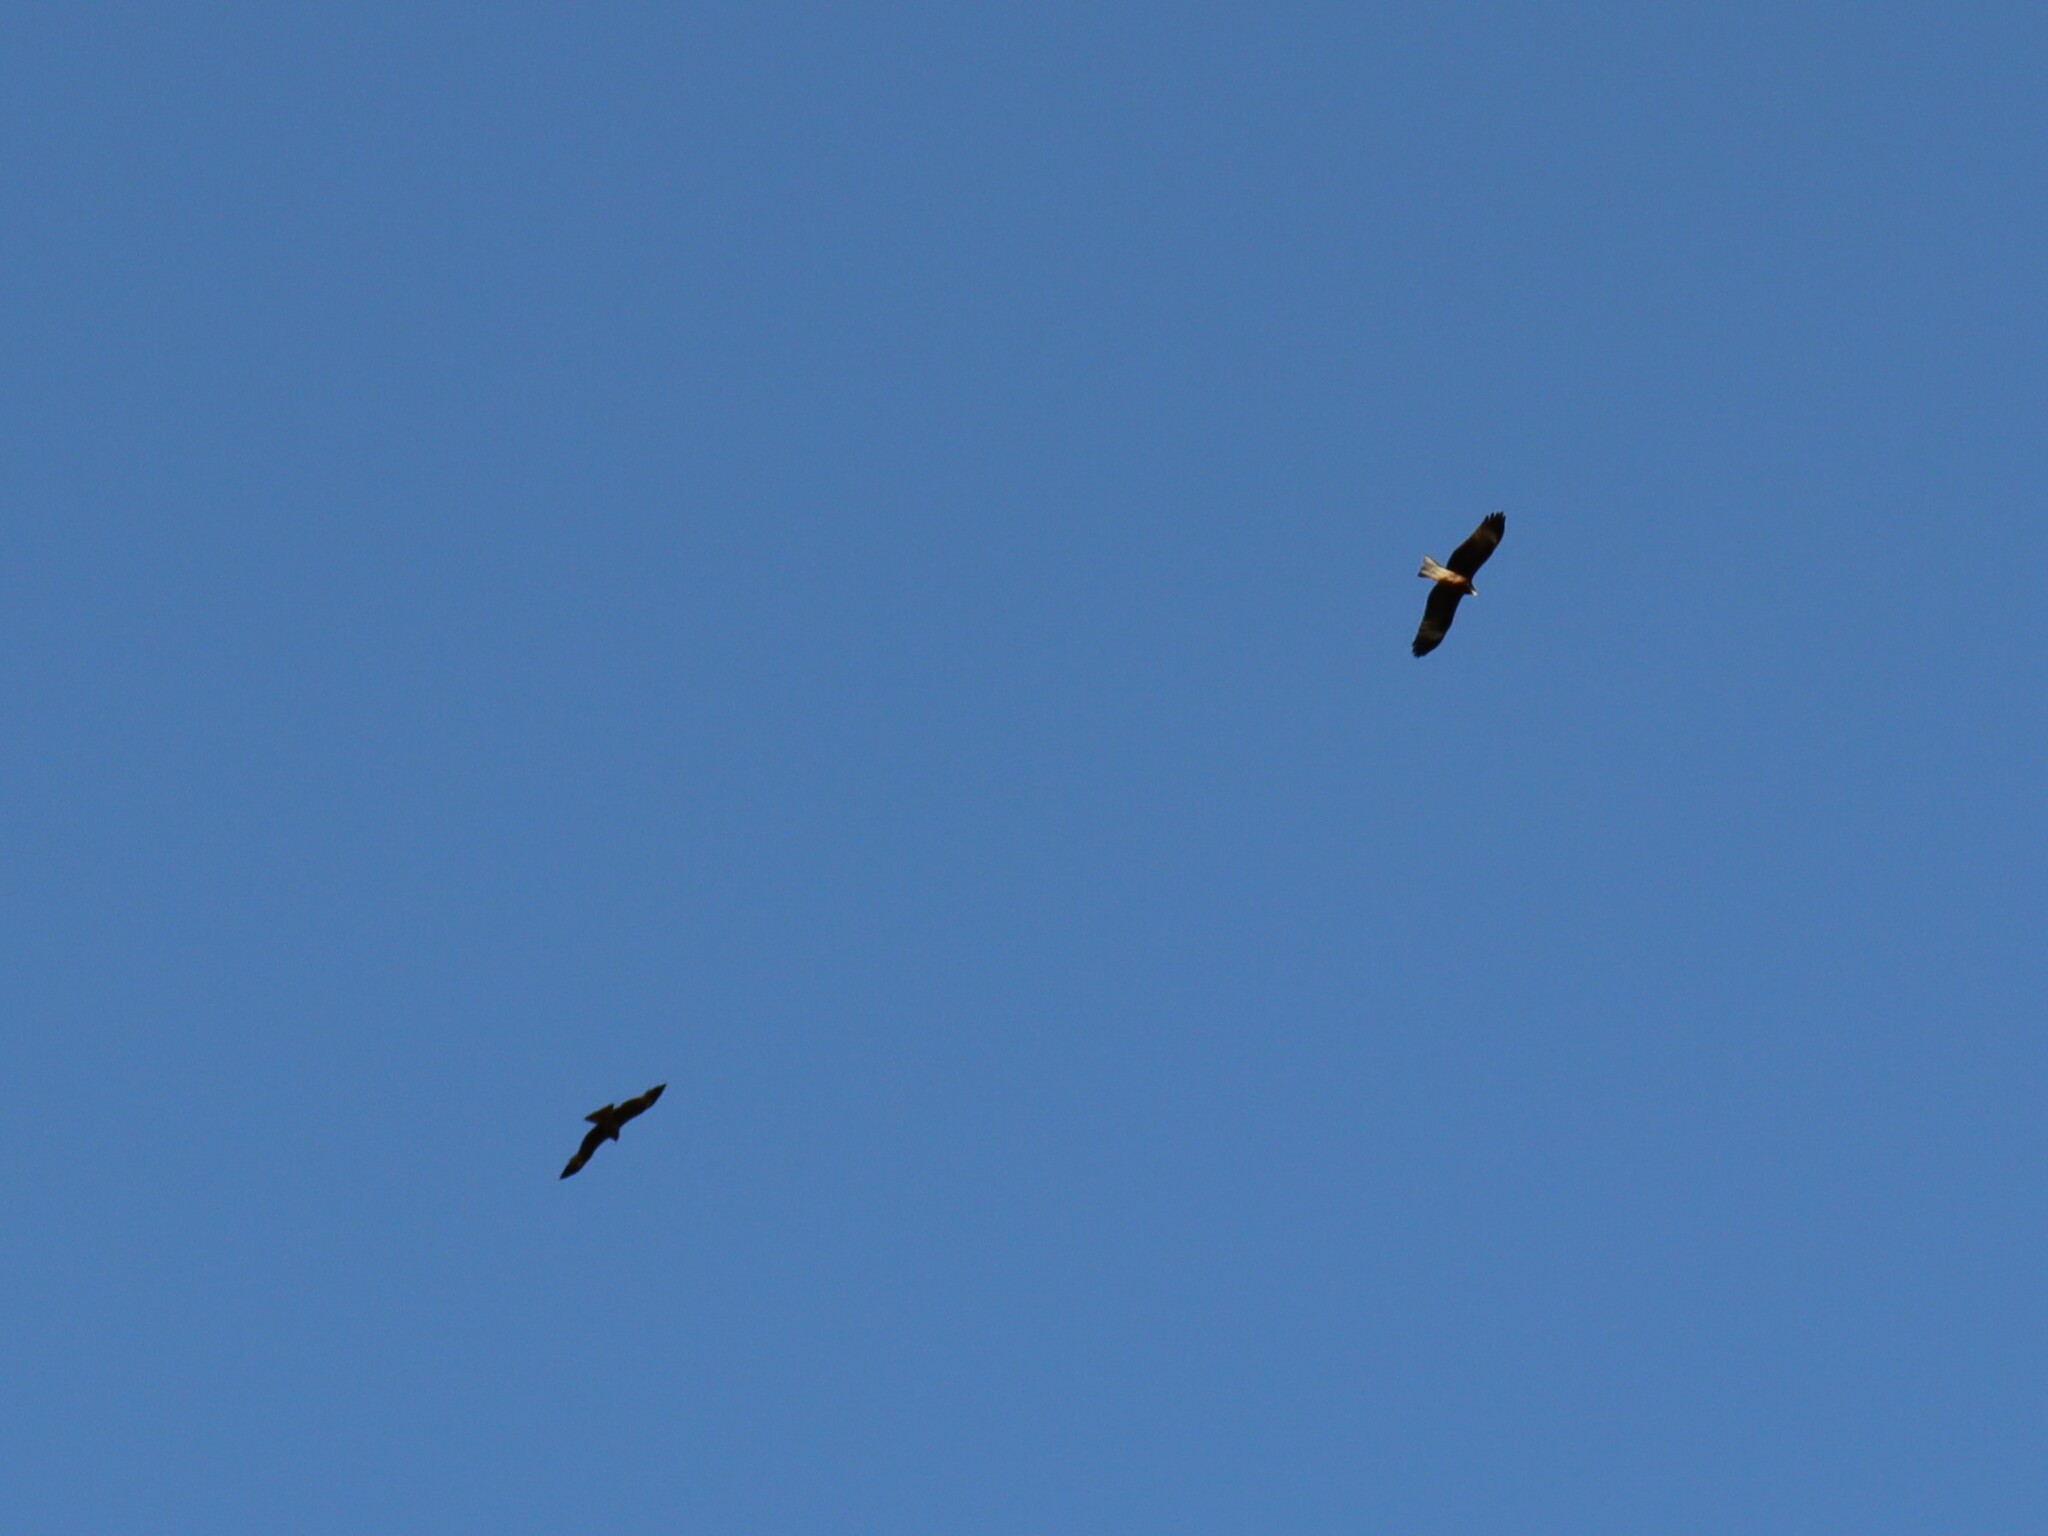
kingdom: Animalia
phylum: Chordata
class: Aves
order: Accipitriformes
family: Accipitridae
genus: Milvus
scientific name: Milvus migrans
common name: Black kite
